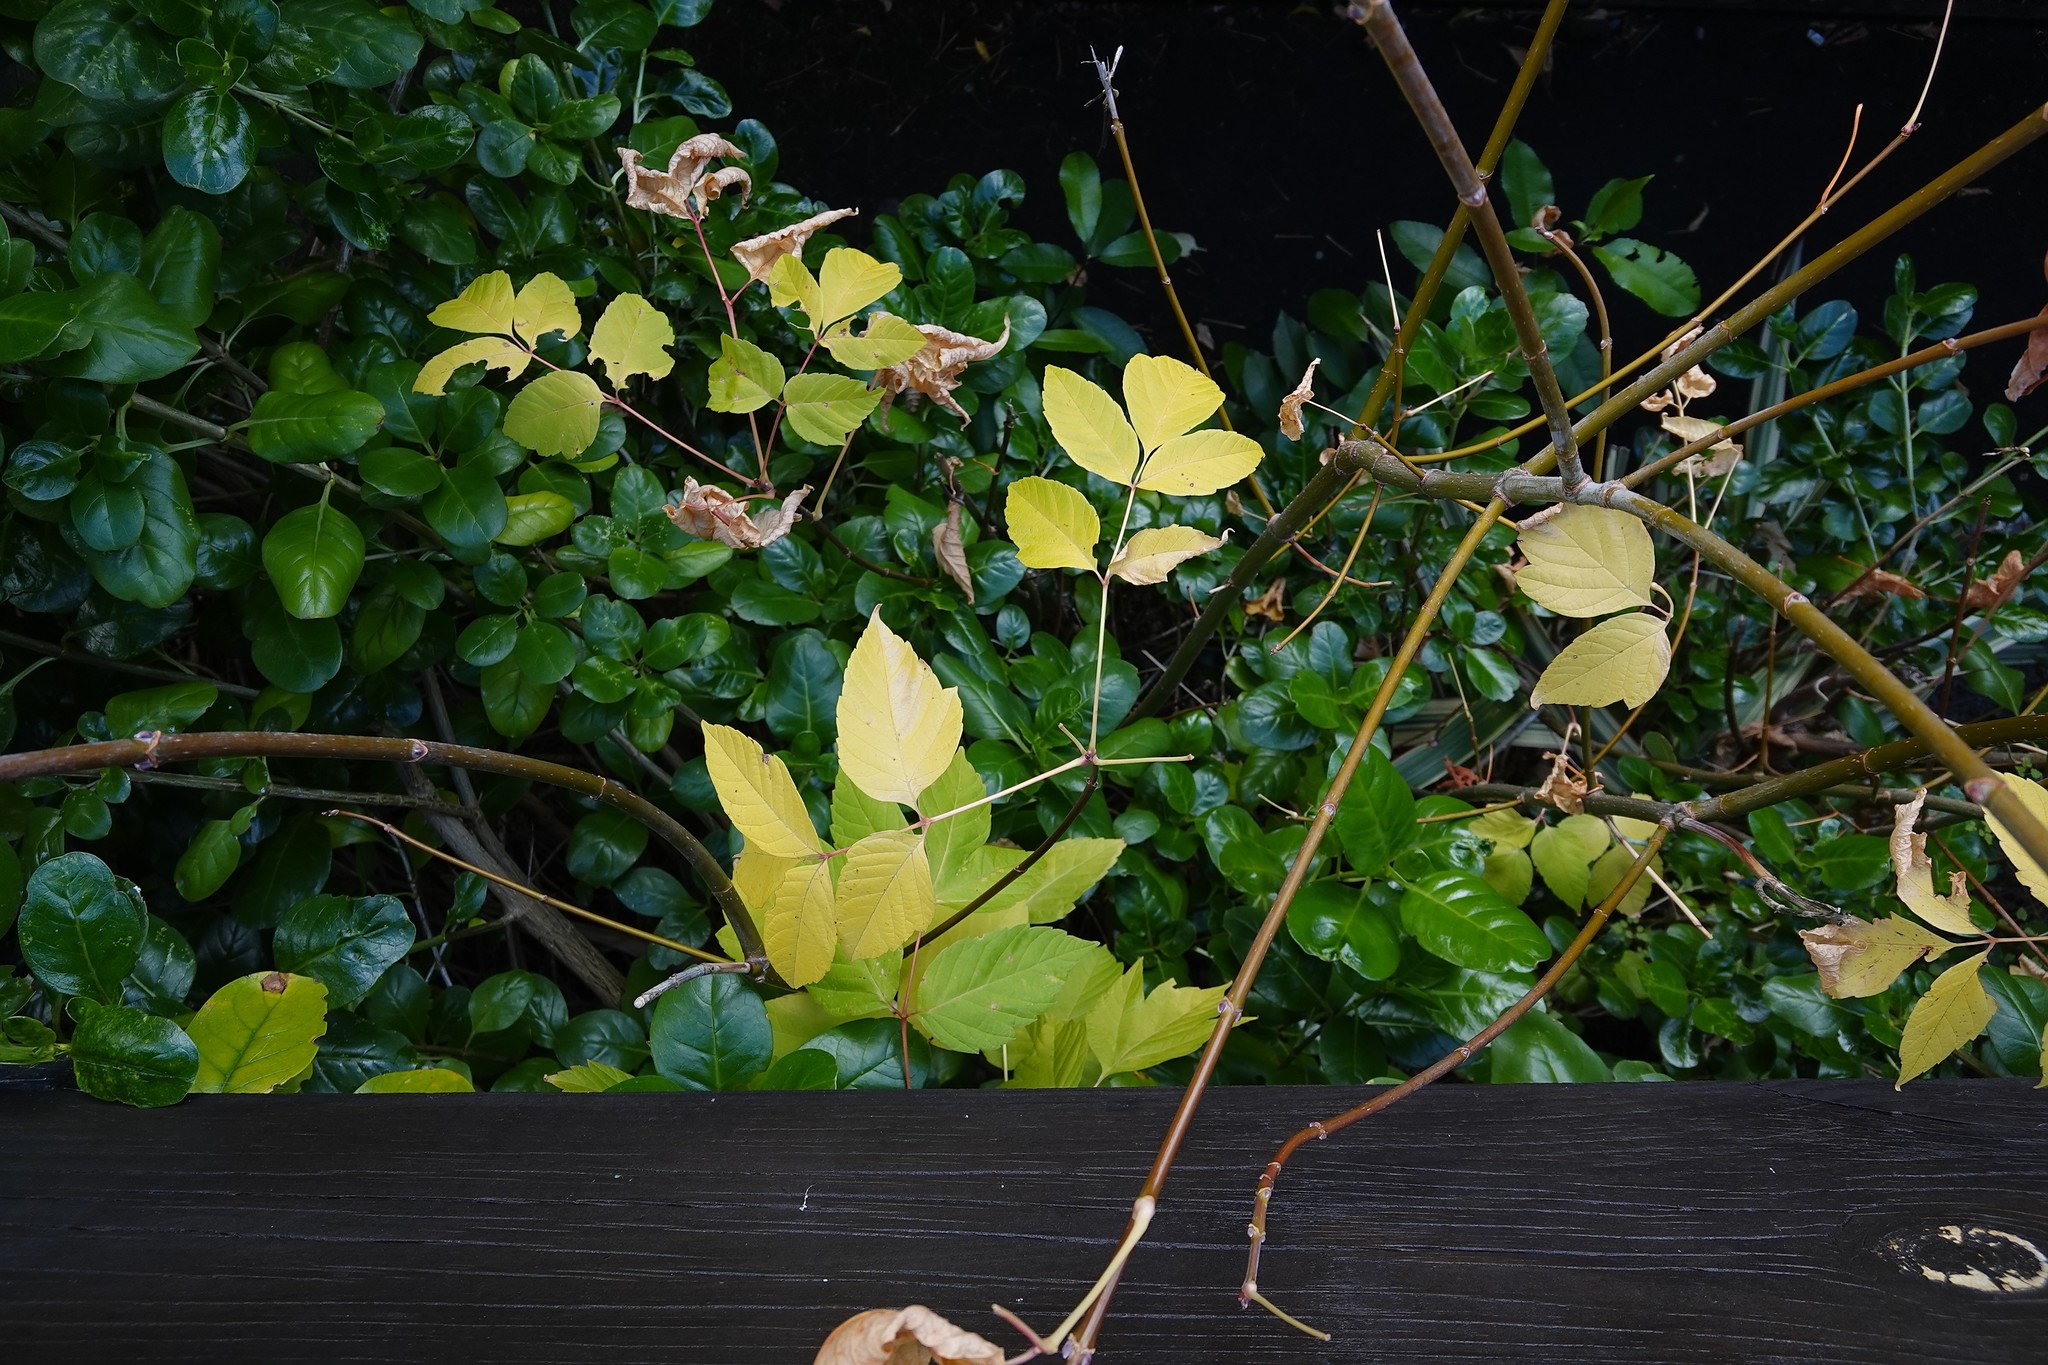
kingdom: Plantae
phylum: Tracheophyta
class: Magnoliopsida
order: Sapindales
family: Sapindaceae
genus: Acer
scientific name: Acer negundo
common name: Ashleaf maple
